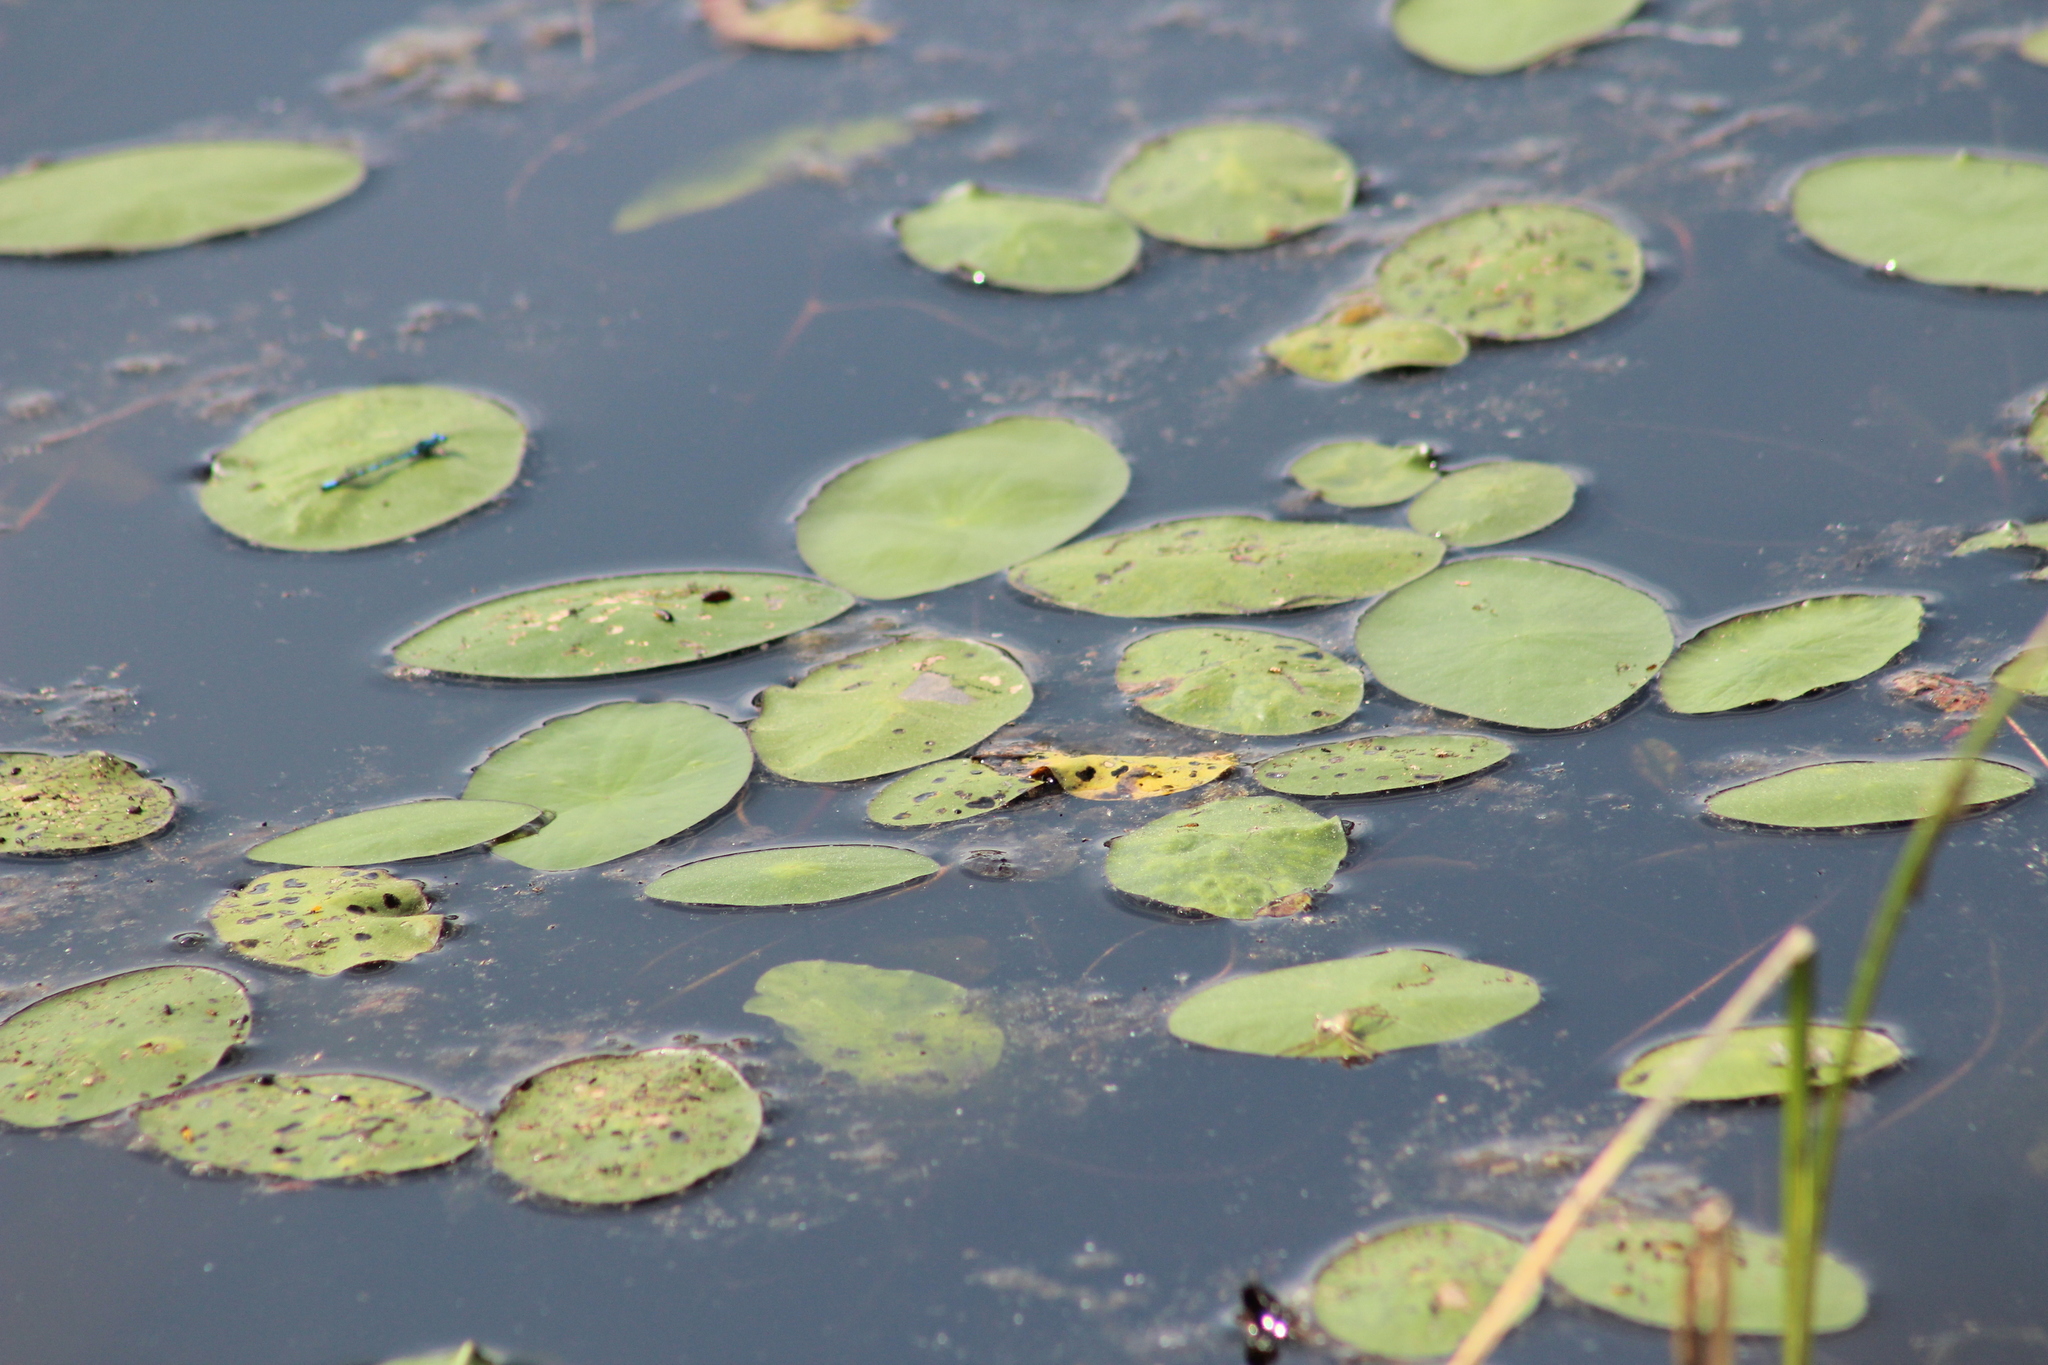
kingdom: Plantae
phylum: Tracheophyta
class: Magnoliopsida
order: Nymphaeales
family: Cabombaceae
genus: Brasenia
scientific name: Brasenia schreberi
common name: Water-shield
